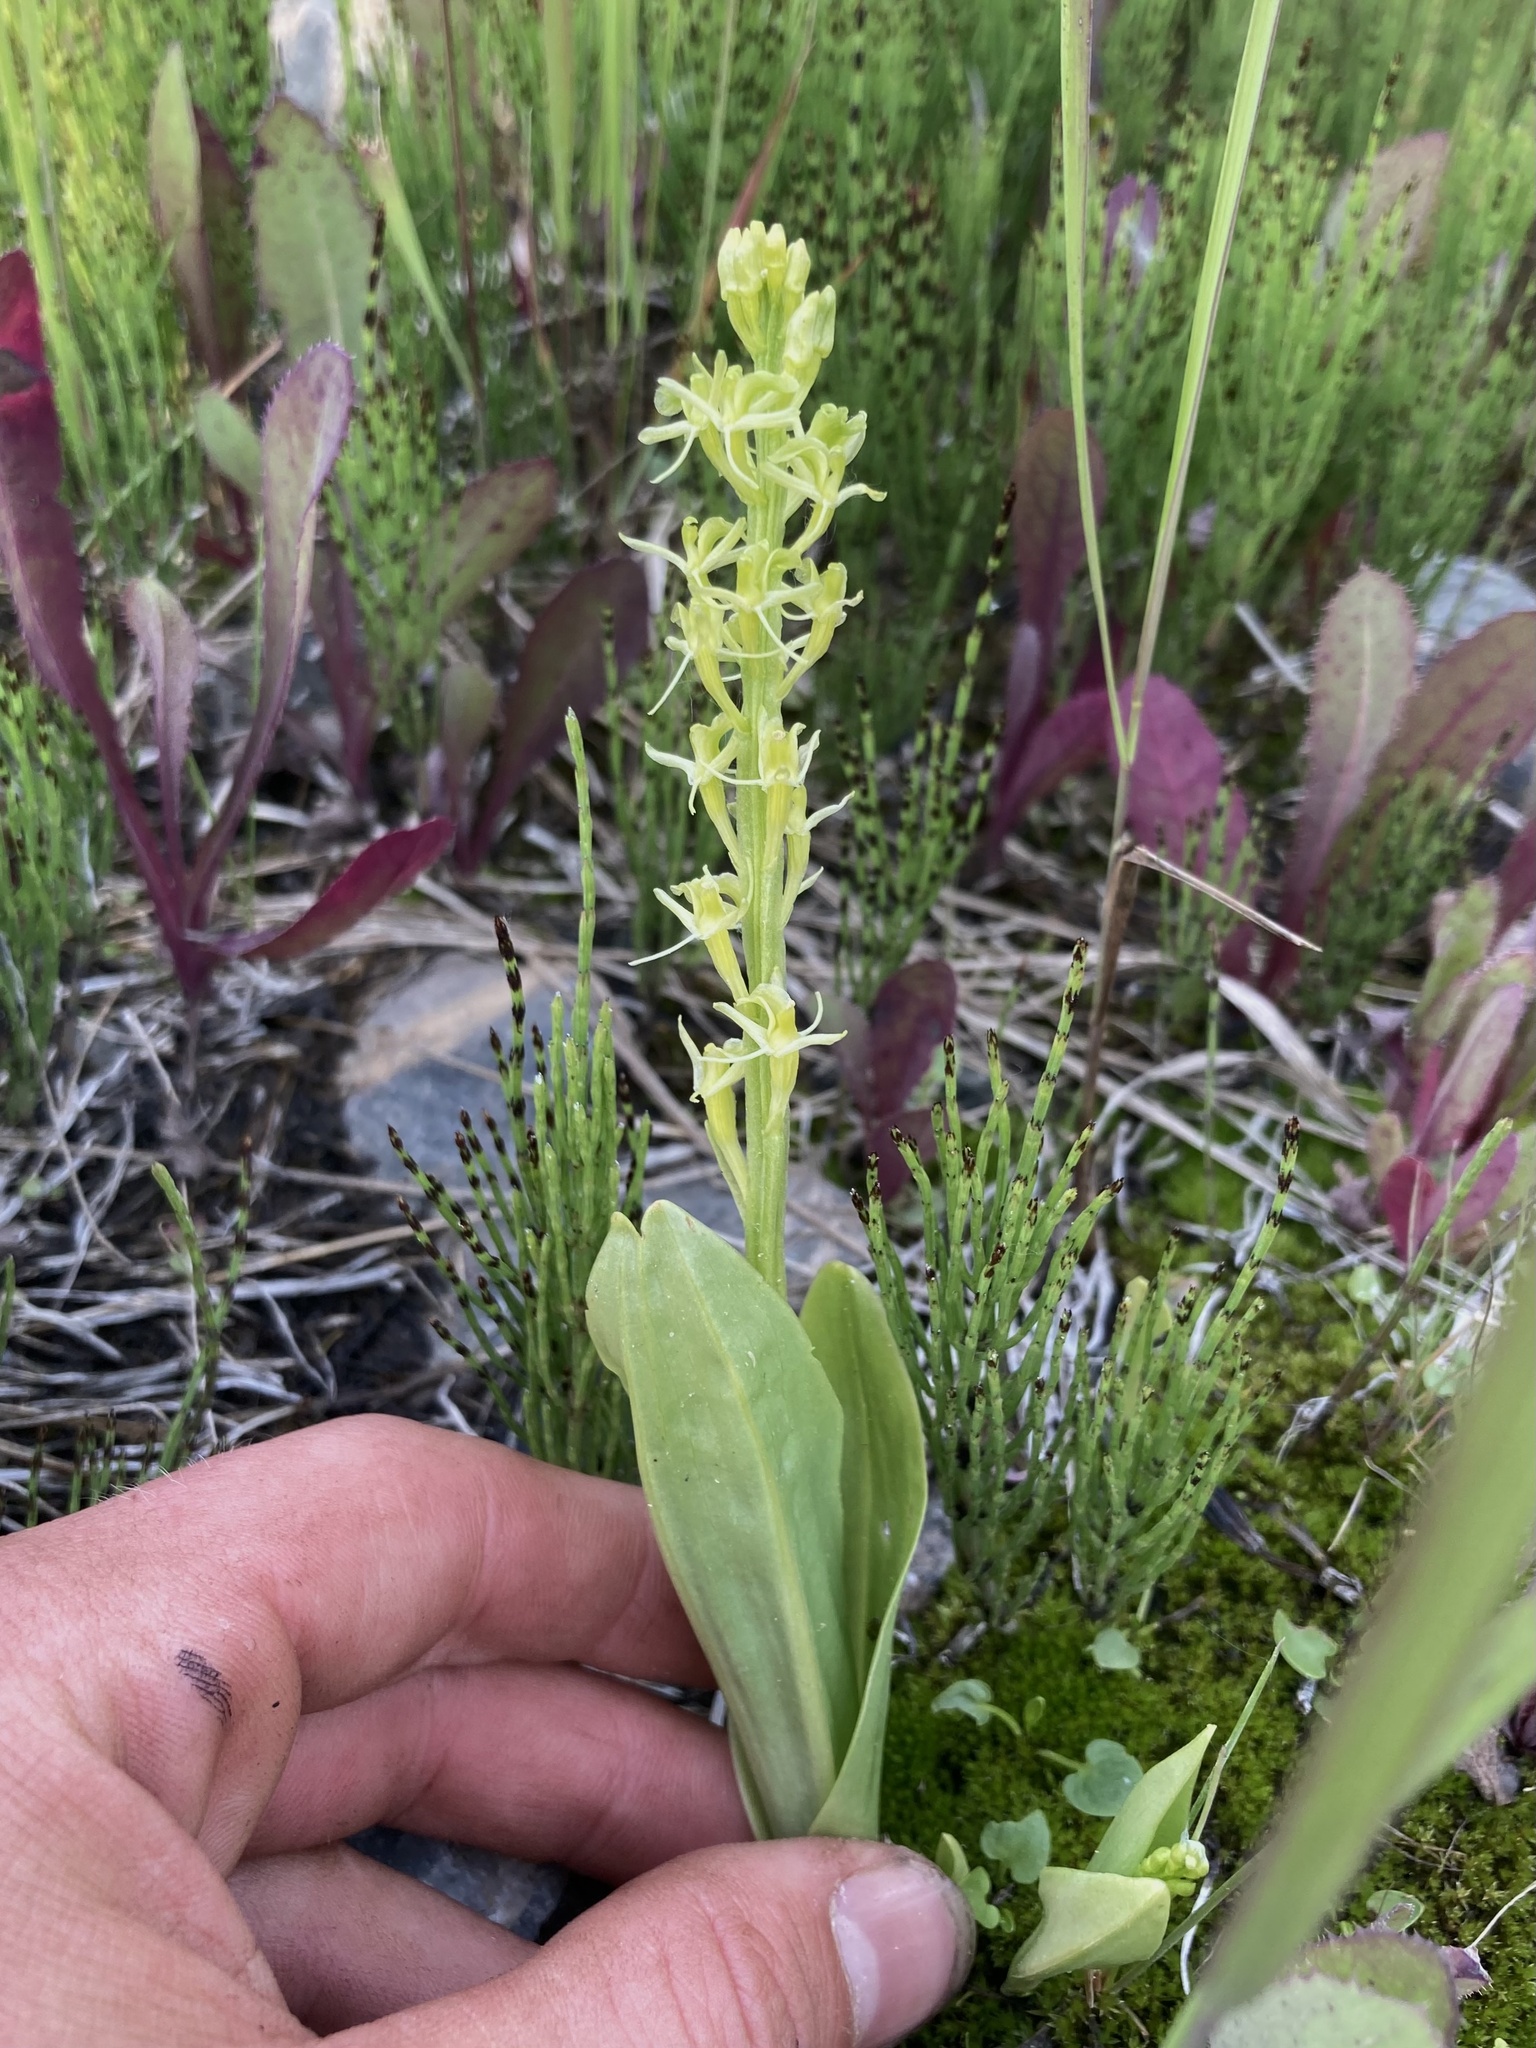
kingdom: Animalia
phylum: Arthropoda
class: Insecta
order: Coleoptera
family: Curculionidae
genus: Liparis
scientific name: Liparis loeselii
